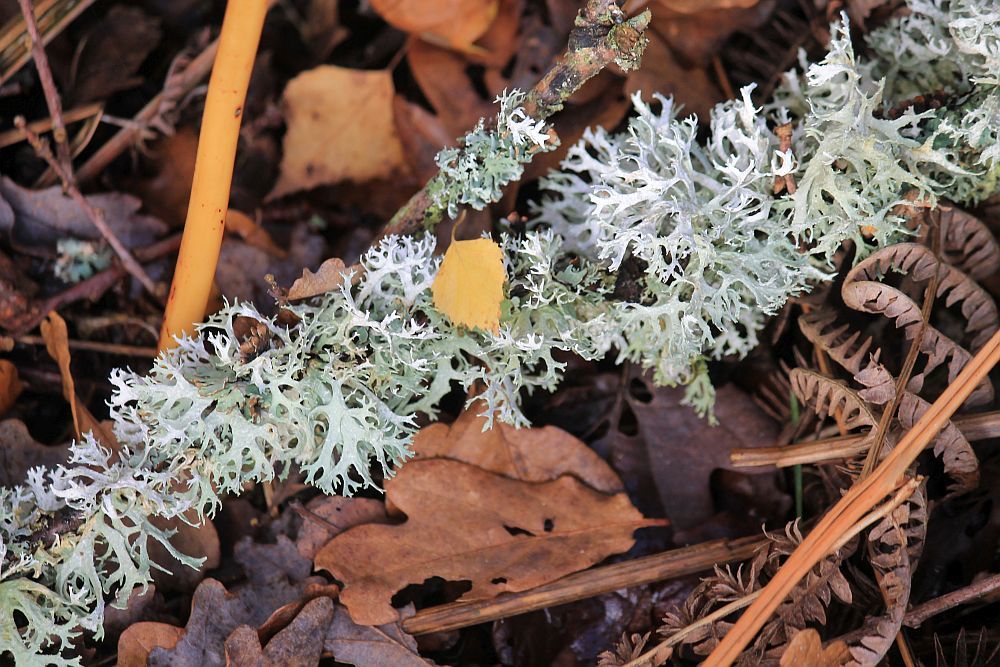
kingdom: Fungi
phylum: Ascomycota
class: Lecanoromycetes
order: Lecanorales
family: Parmeliaceae
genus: Evernia
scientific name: Evernia prunastri
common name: Oak moss
